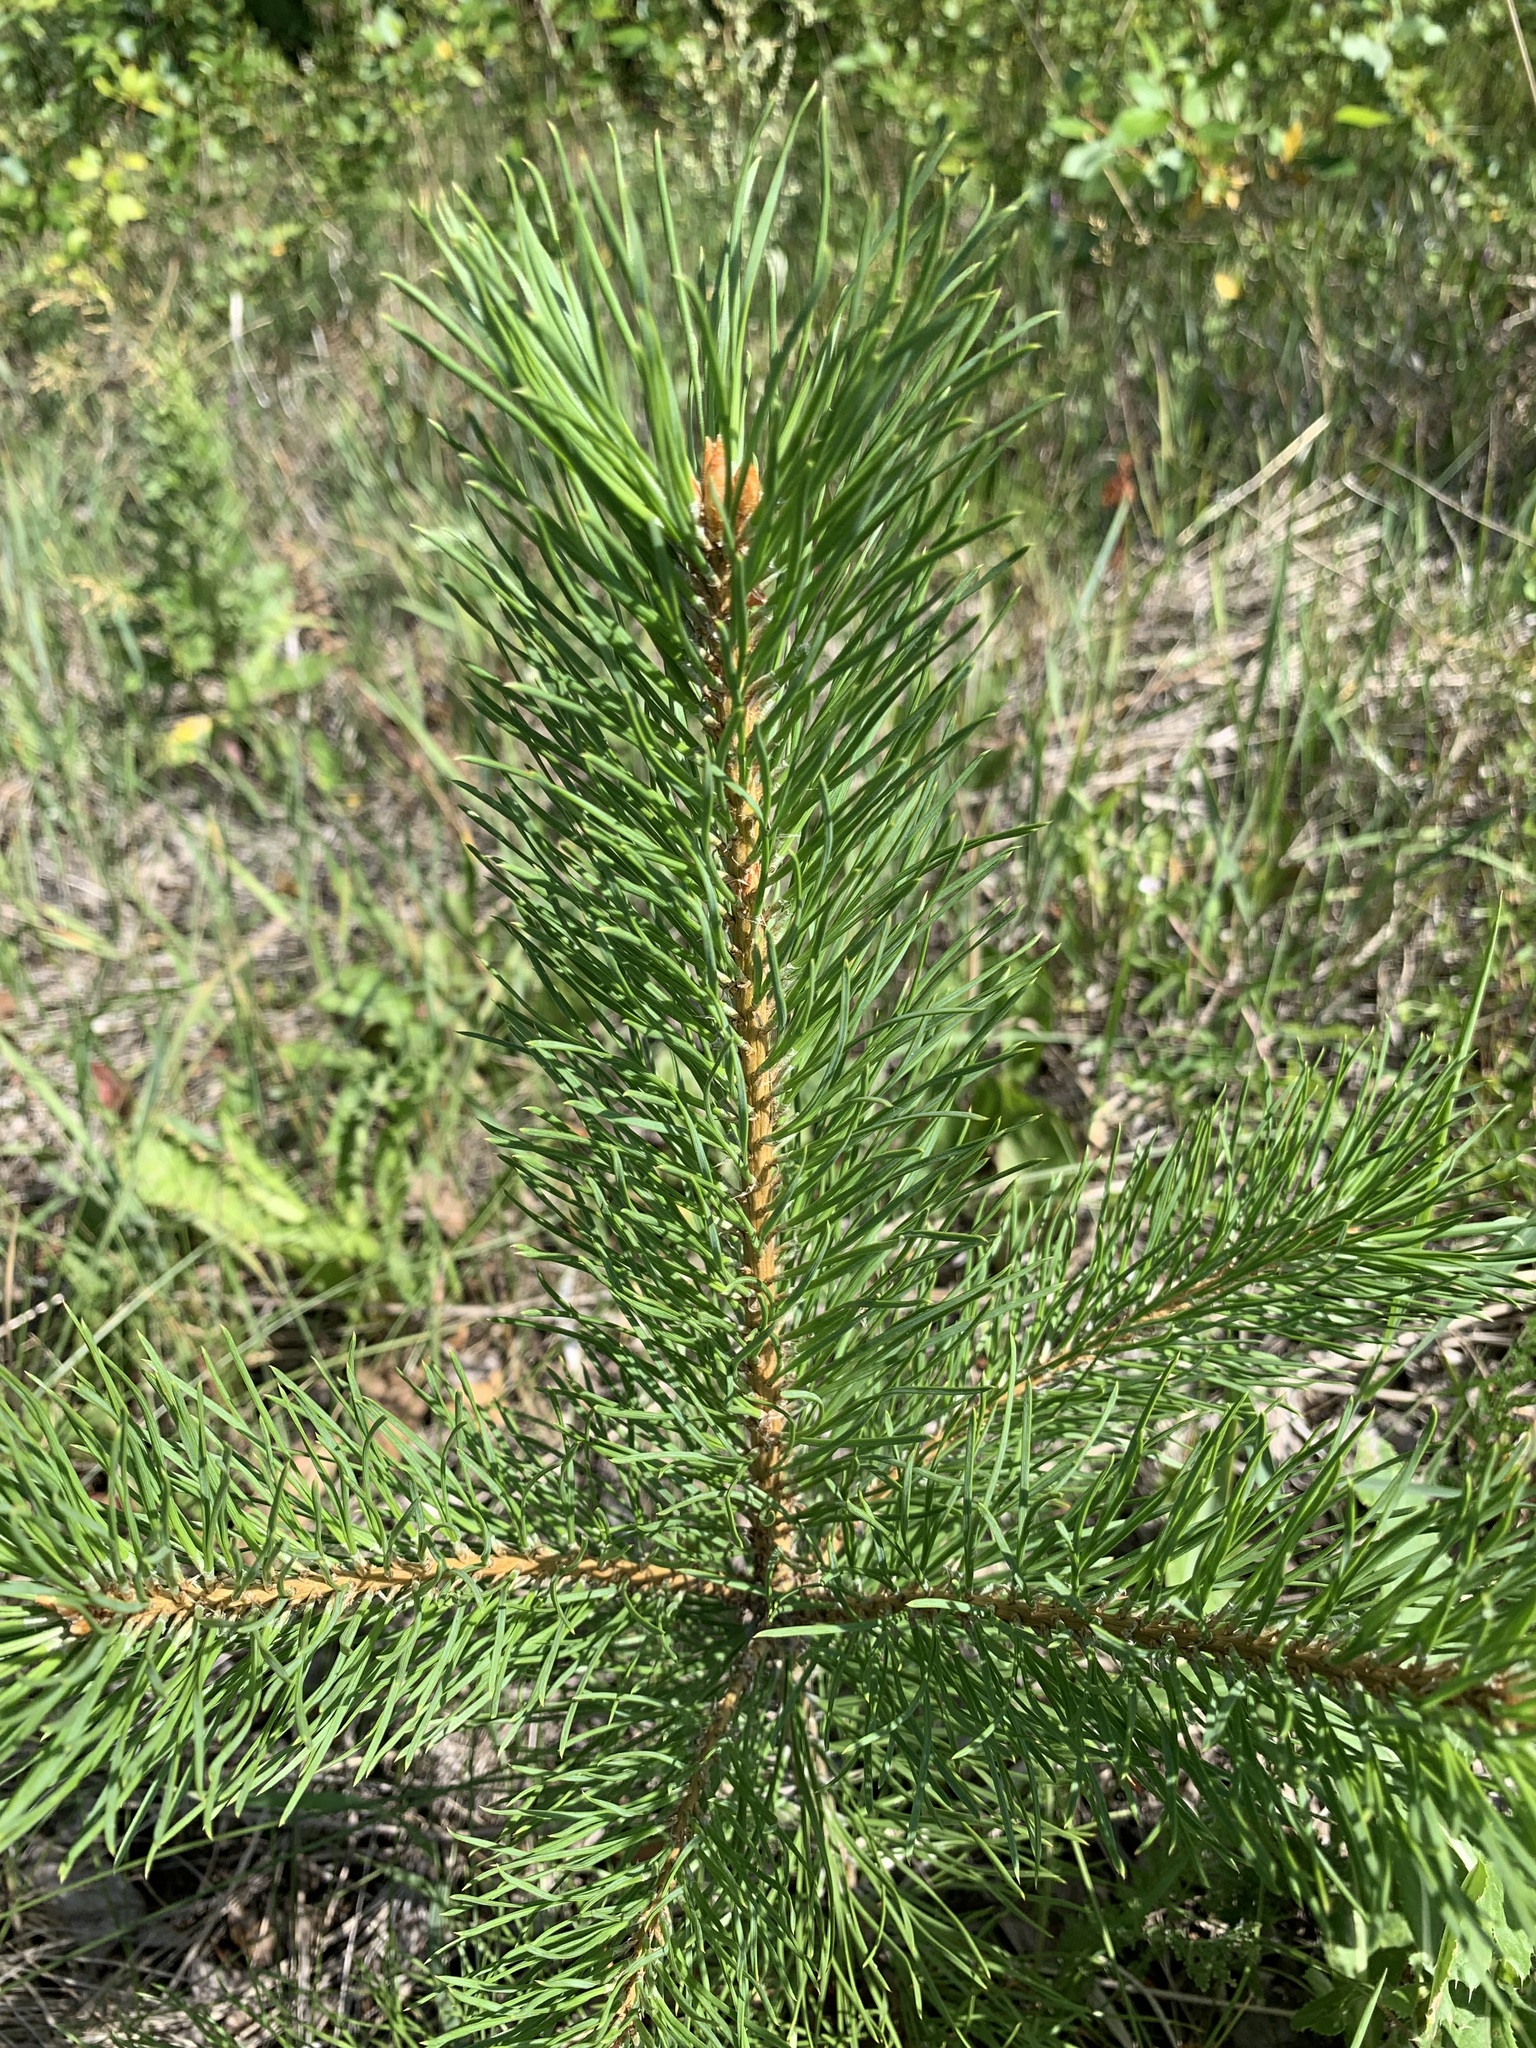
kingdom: Plantae
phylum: Tracheophyta
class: Pinopsida
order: Pinales
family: Pinaceae
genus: Pinus
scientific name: Pinus sylvestris
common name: Scots pine
